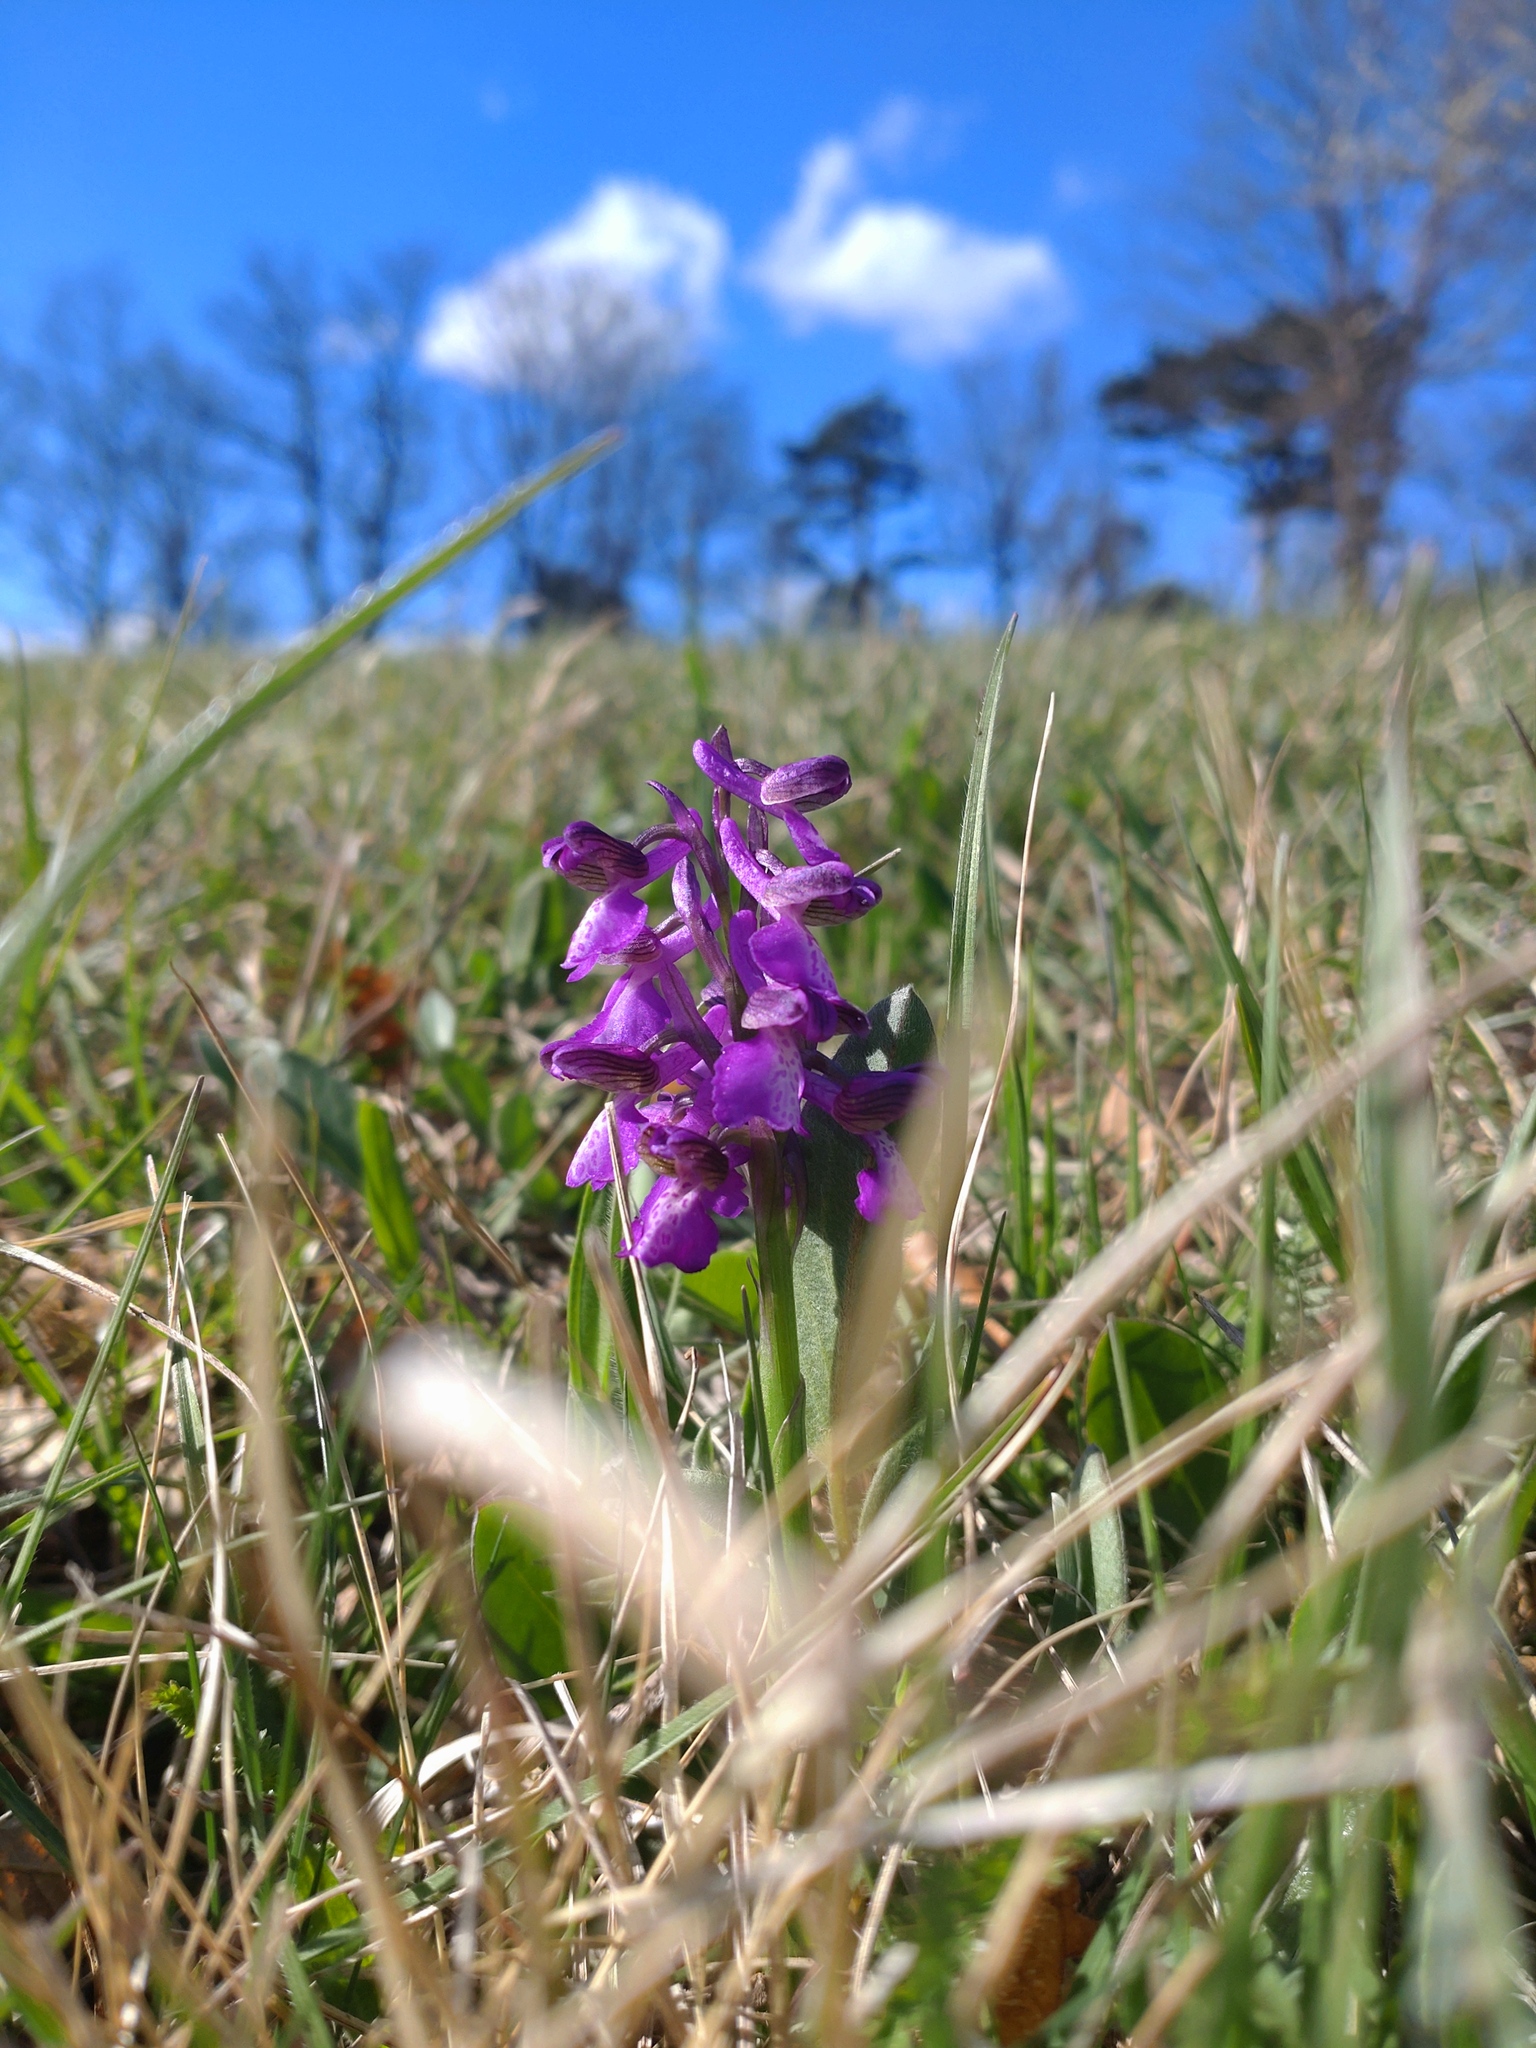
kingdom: Plantae
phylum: Tracheophyta
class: Liliopsida
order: Asparagales
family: Orchidaceae
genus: Anacamptis
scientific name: Anacamptis morio
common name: Green-winged orchid
